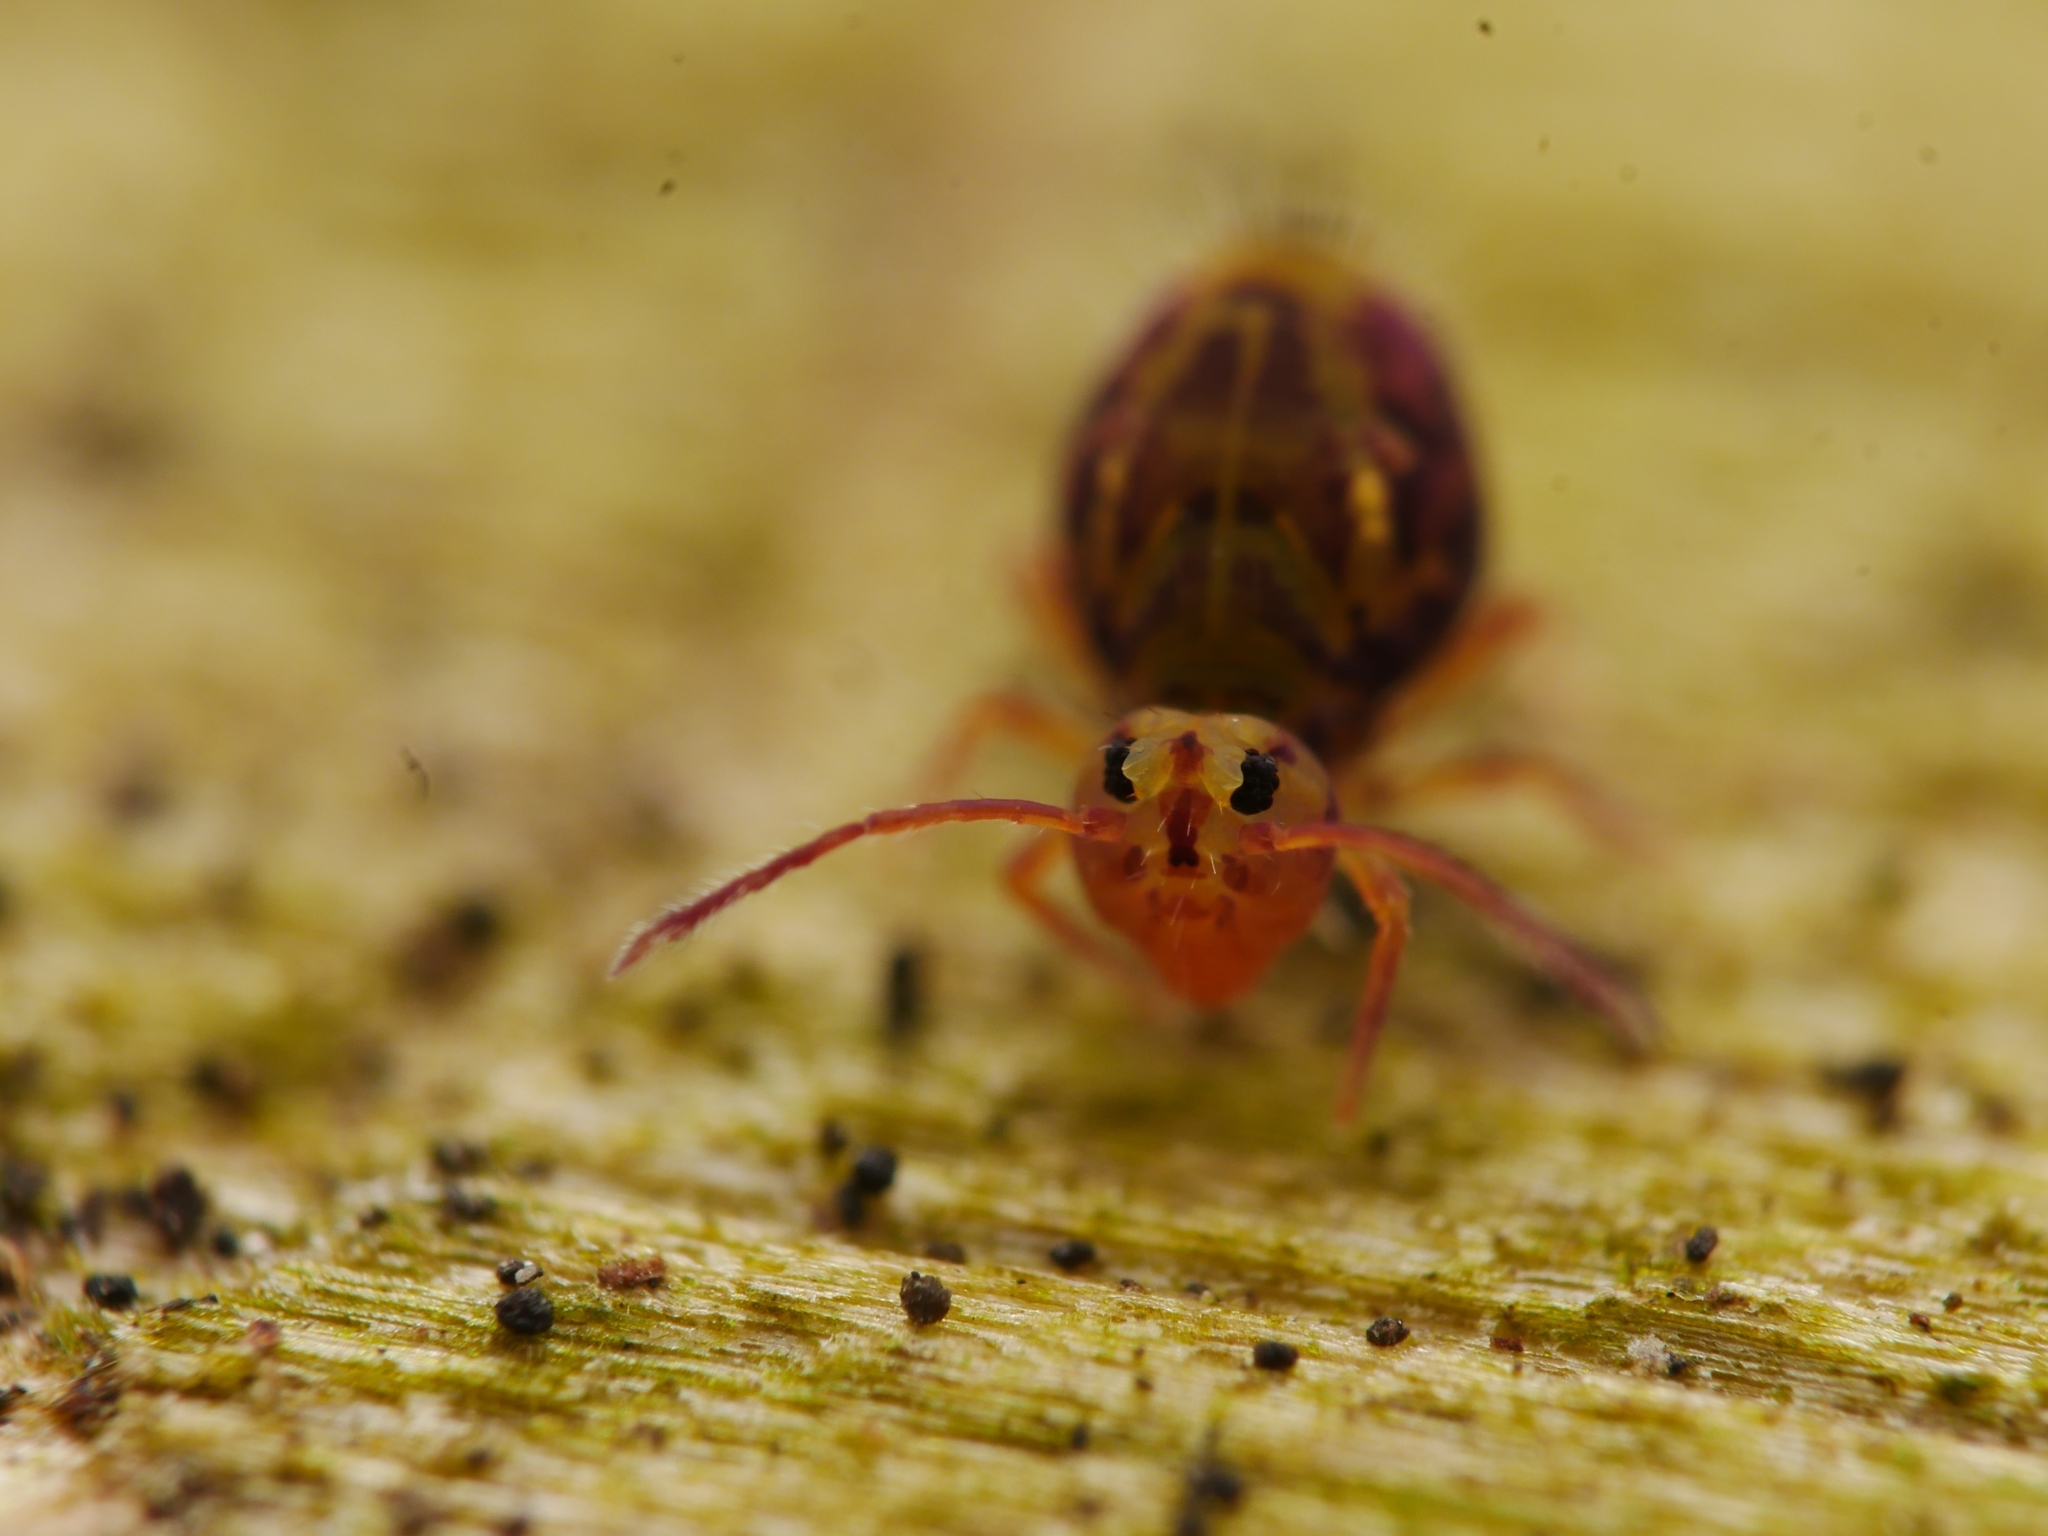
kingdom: Animalia
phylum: Arthropoda
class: Collembola
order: Symphypleona
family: Dicyrtomidae
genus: Dicyrtomina
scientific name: Dicyrtomina ornata
